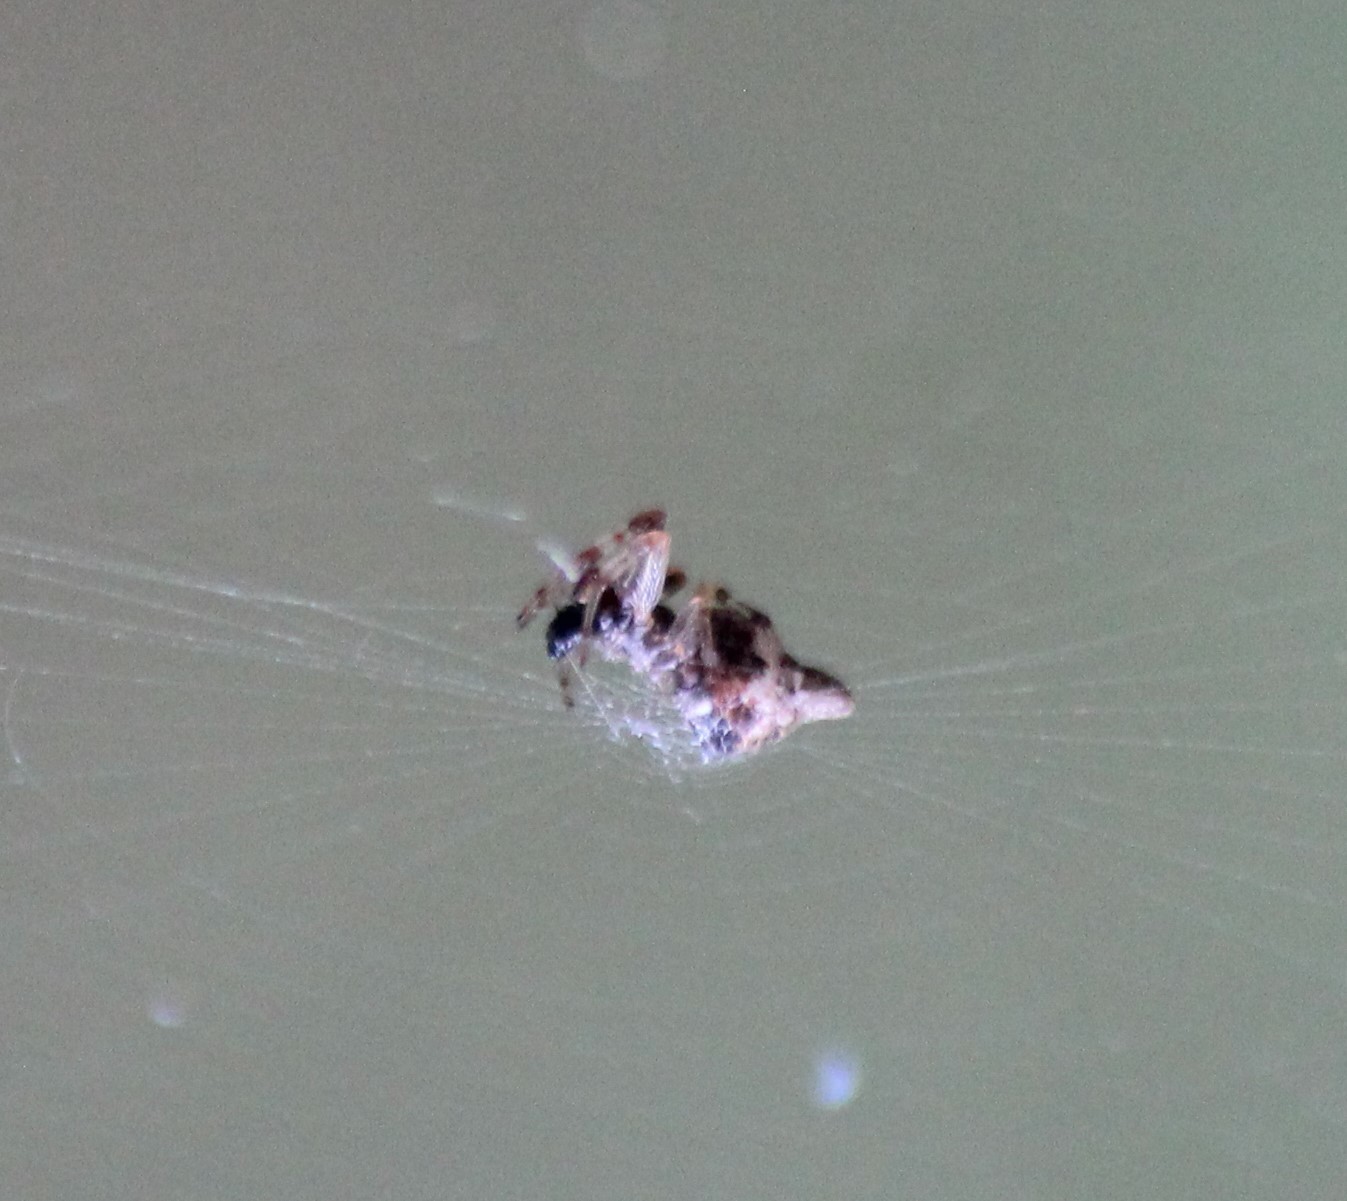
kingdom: Animalia
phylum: Arthropoda
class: Arachnida
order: Araneae
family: Araneidae
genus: Cyclosa
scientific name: Cyclosa turbinata
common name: Orb weavers
